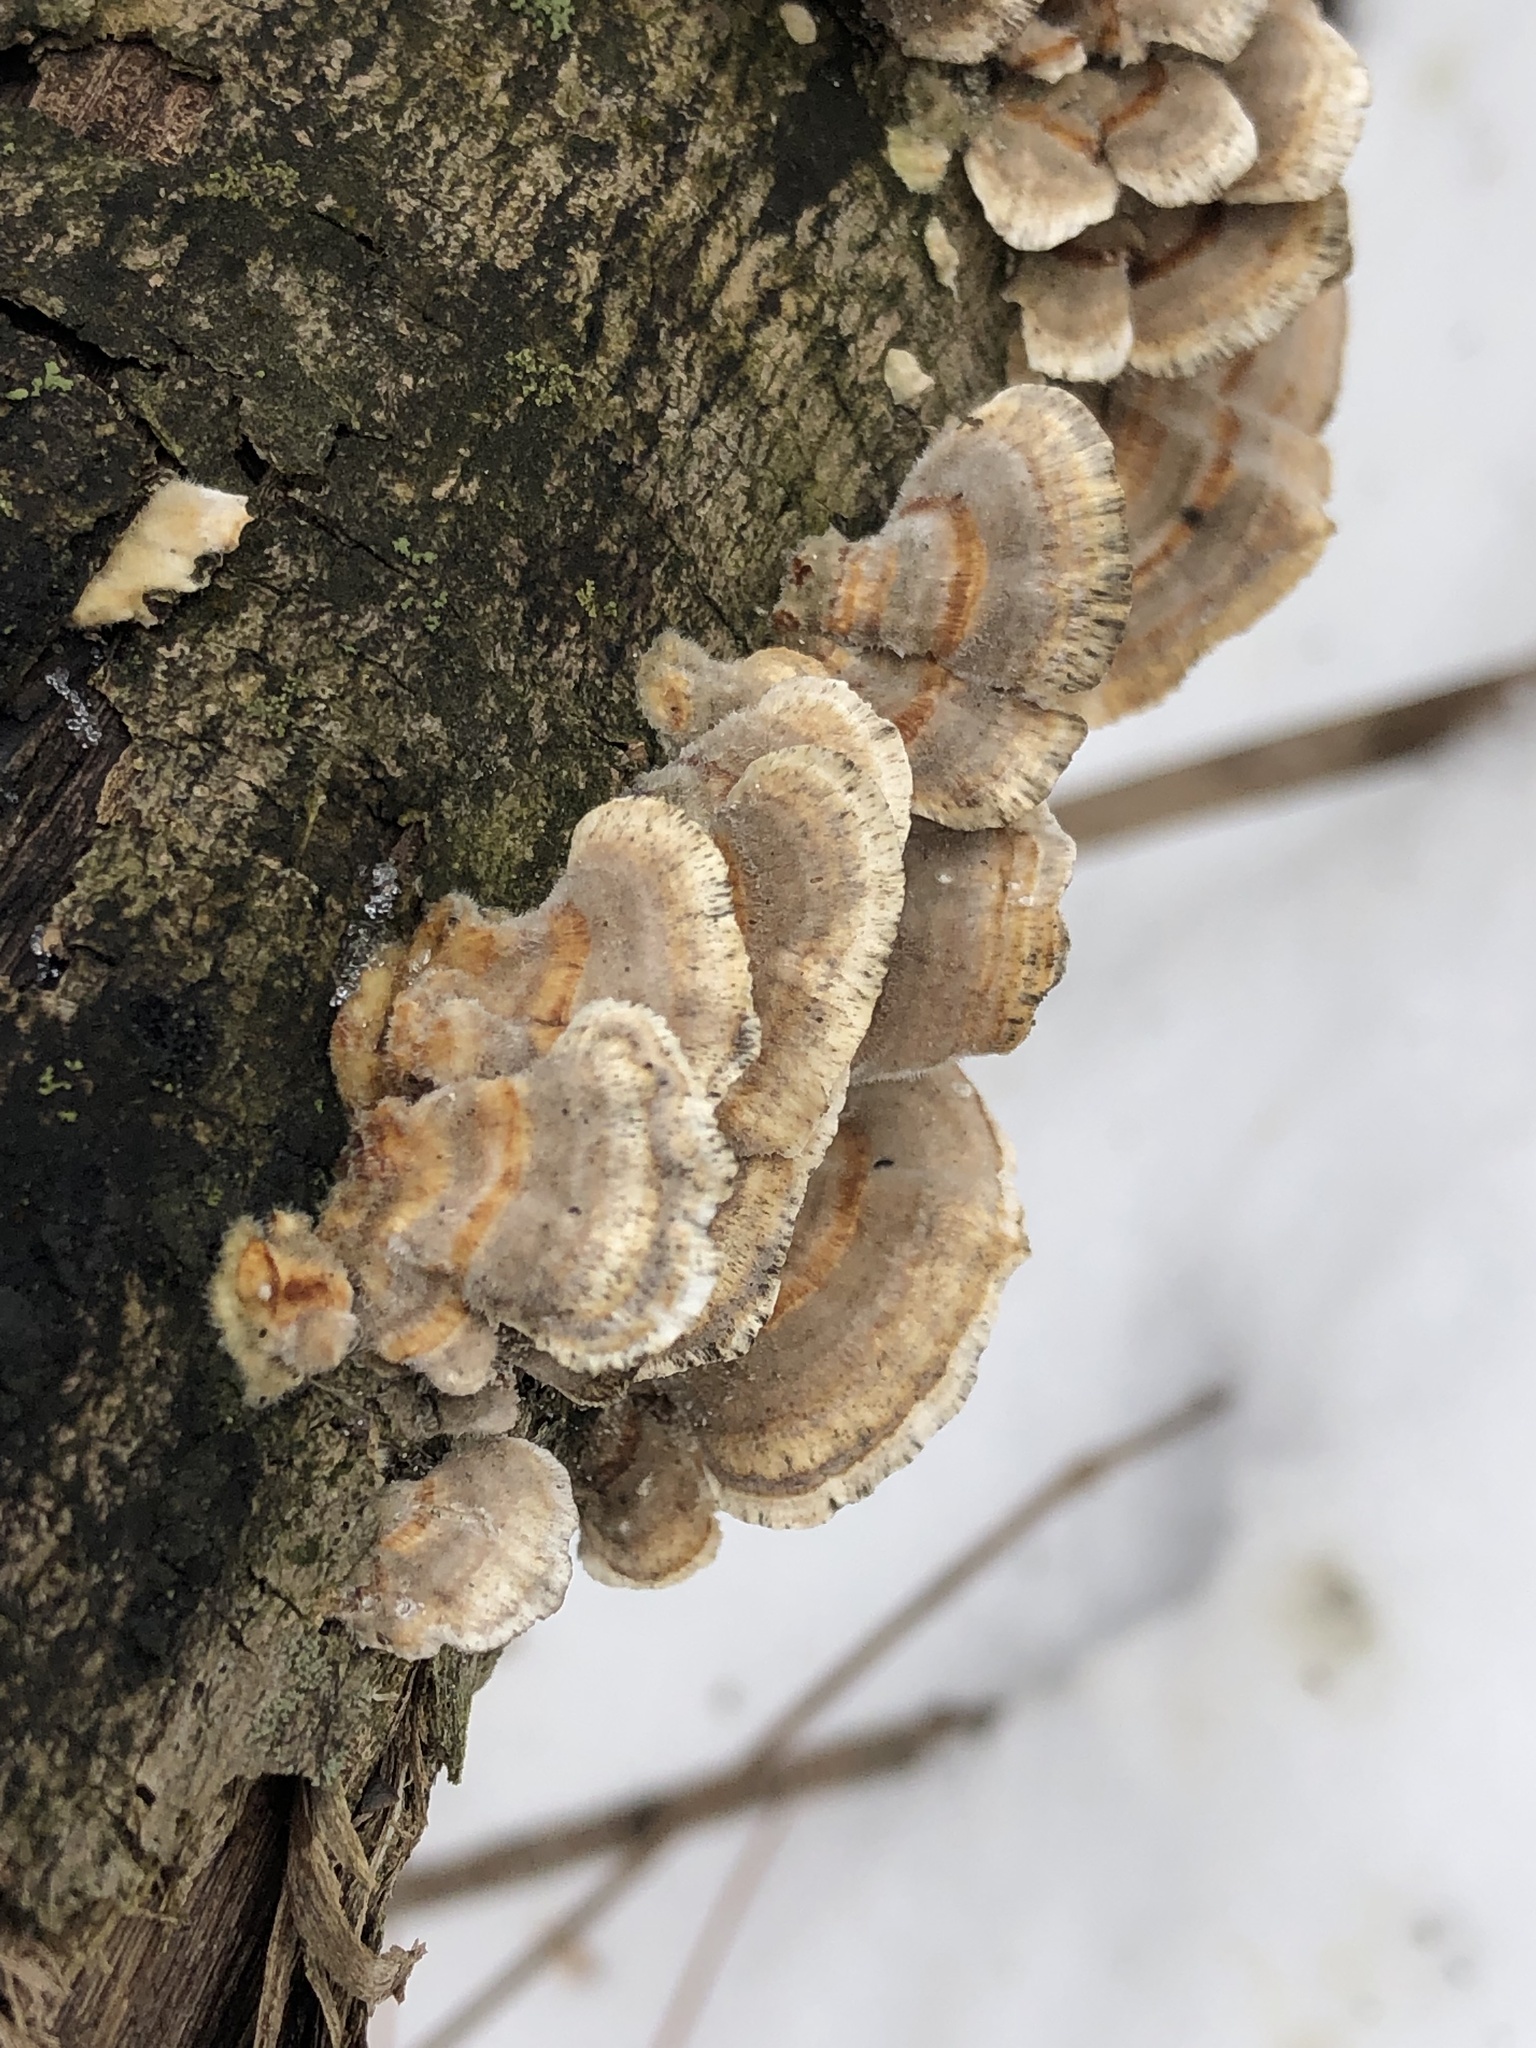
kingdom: Fungi
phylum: Basidiomycota
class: Agaricomycetes
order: Polyporales
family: Polyporaceae
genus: Trametes
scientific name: Trametes versicolor
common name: Turkeytail
